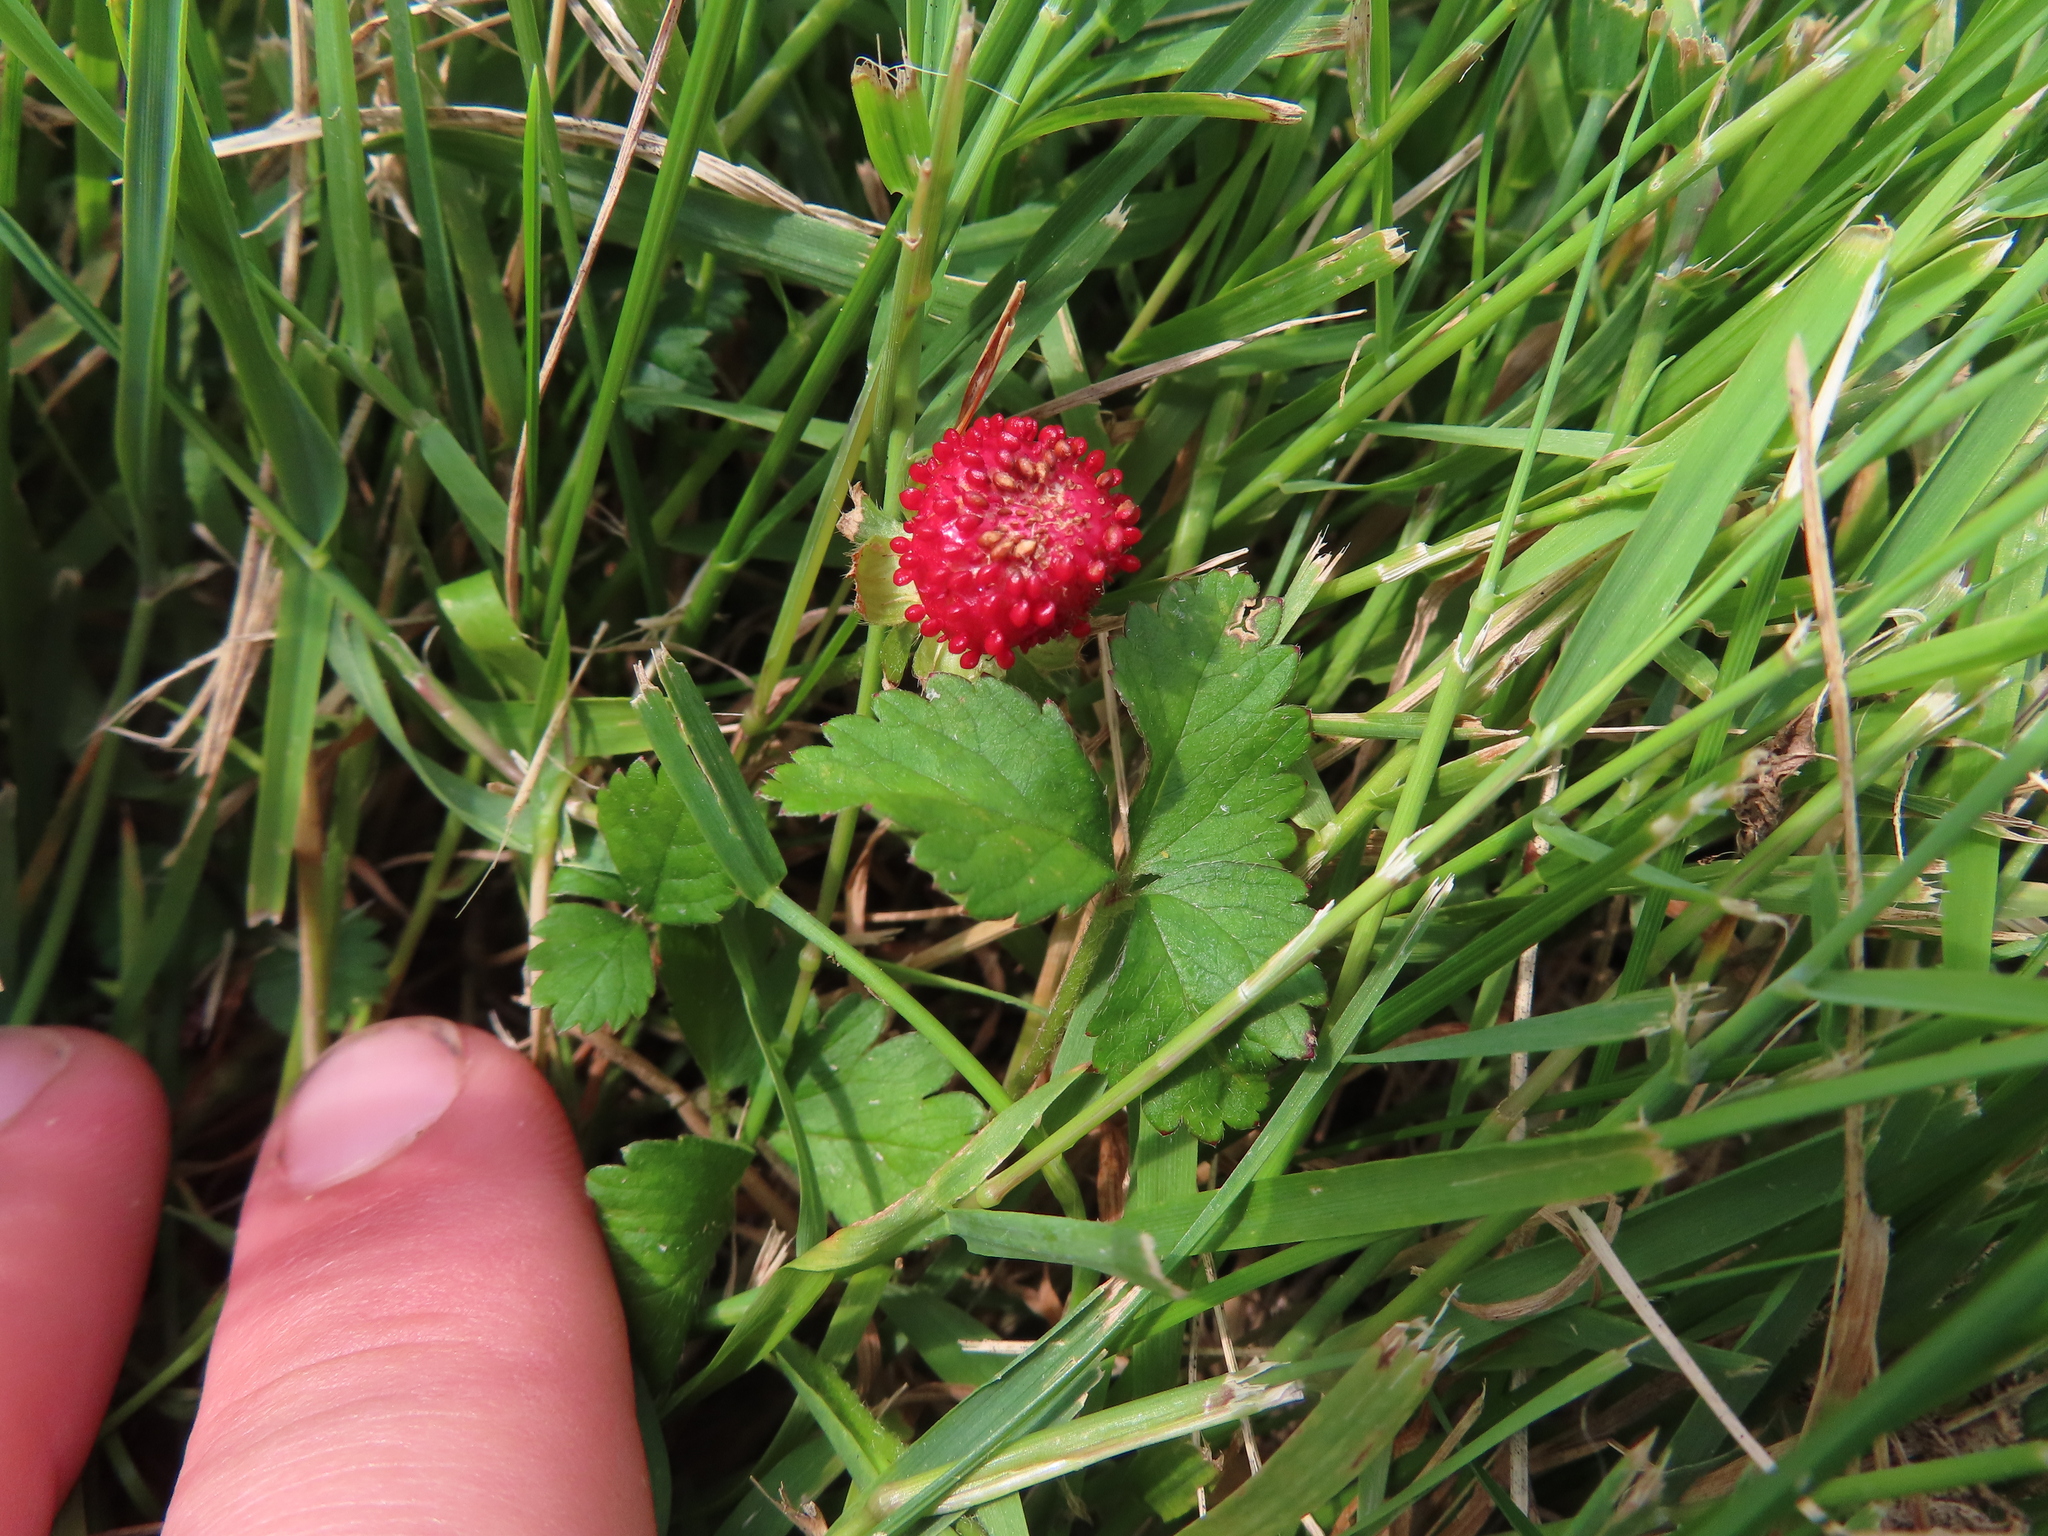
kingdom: Plantae
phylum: Tracheophyta
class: Magnoliopsida
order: Rosales
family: Rosaceae
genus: Potentilla
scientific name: Potentilla indica
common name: Yellow-flowered strawberry
